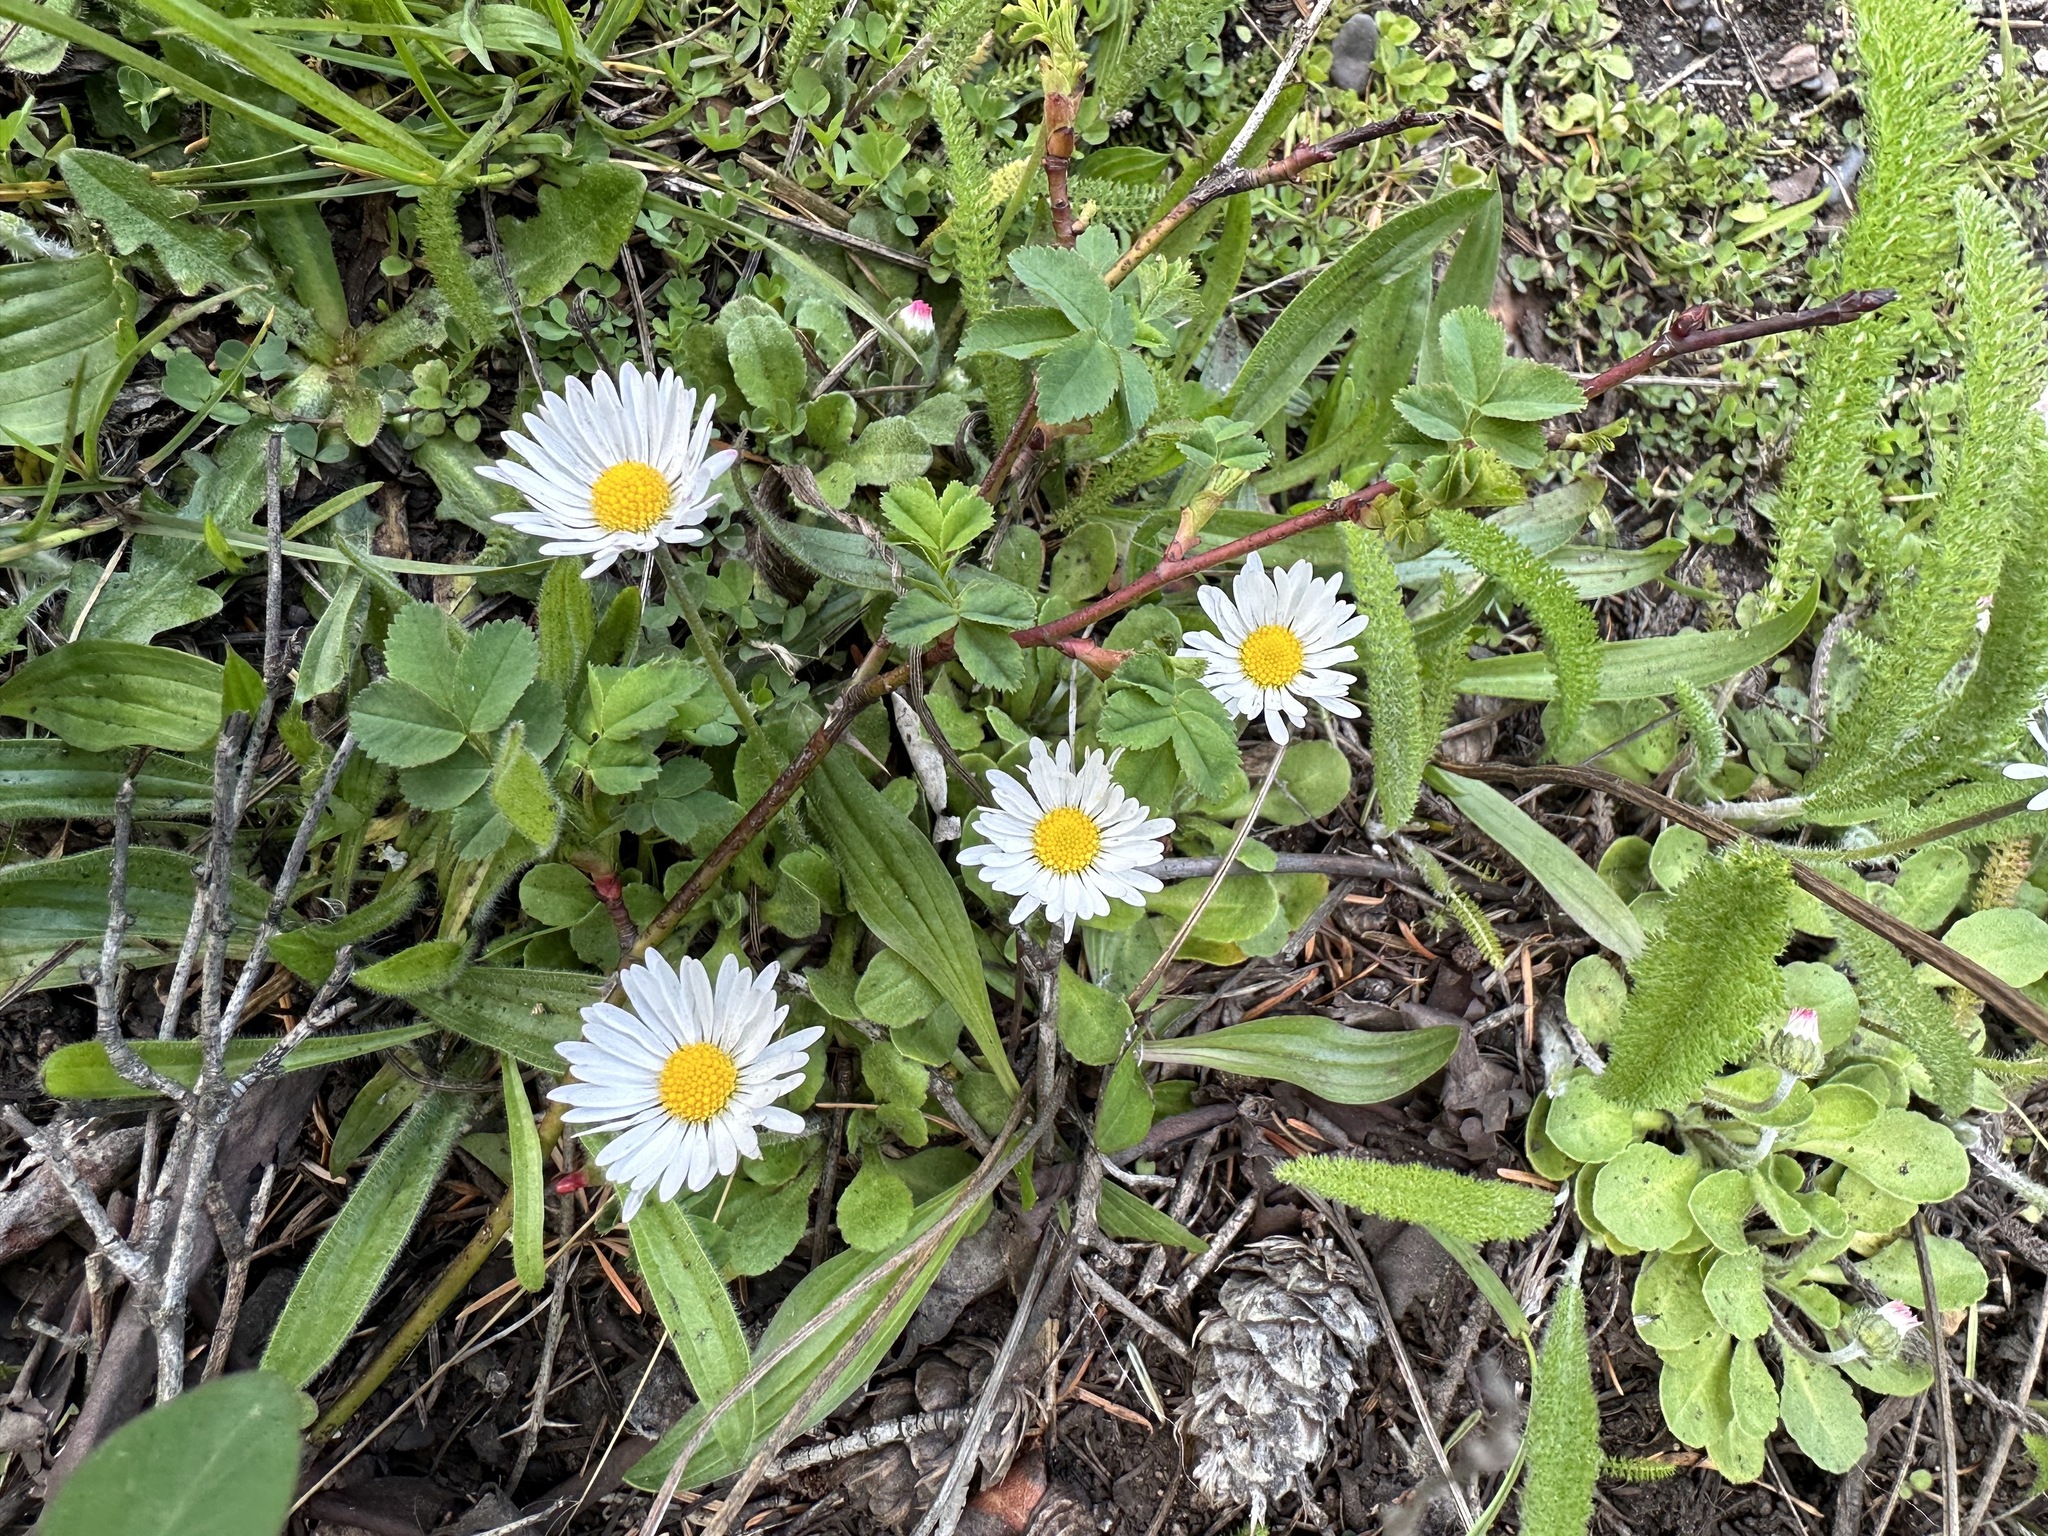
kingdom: Plantae
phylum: Tracheophyta
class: Magnoliopsida
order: Asterales
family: Asteraceae
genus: Bellis
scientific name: Bellis perennis
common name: Lawndaisy
